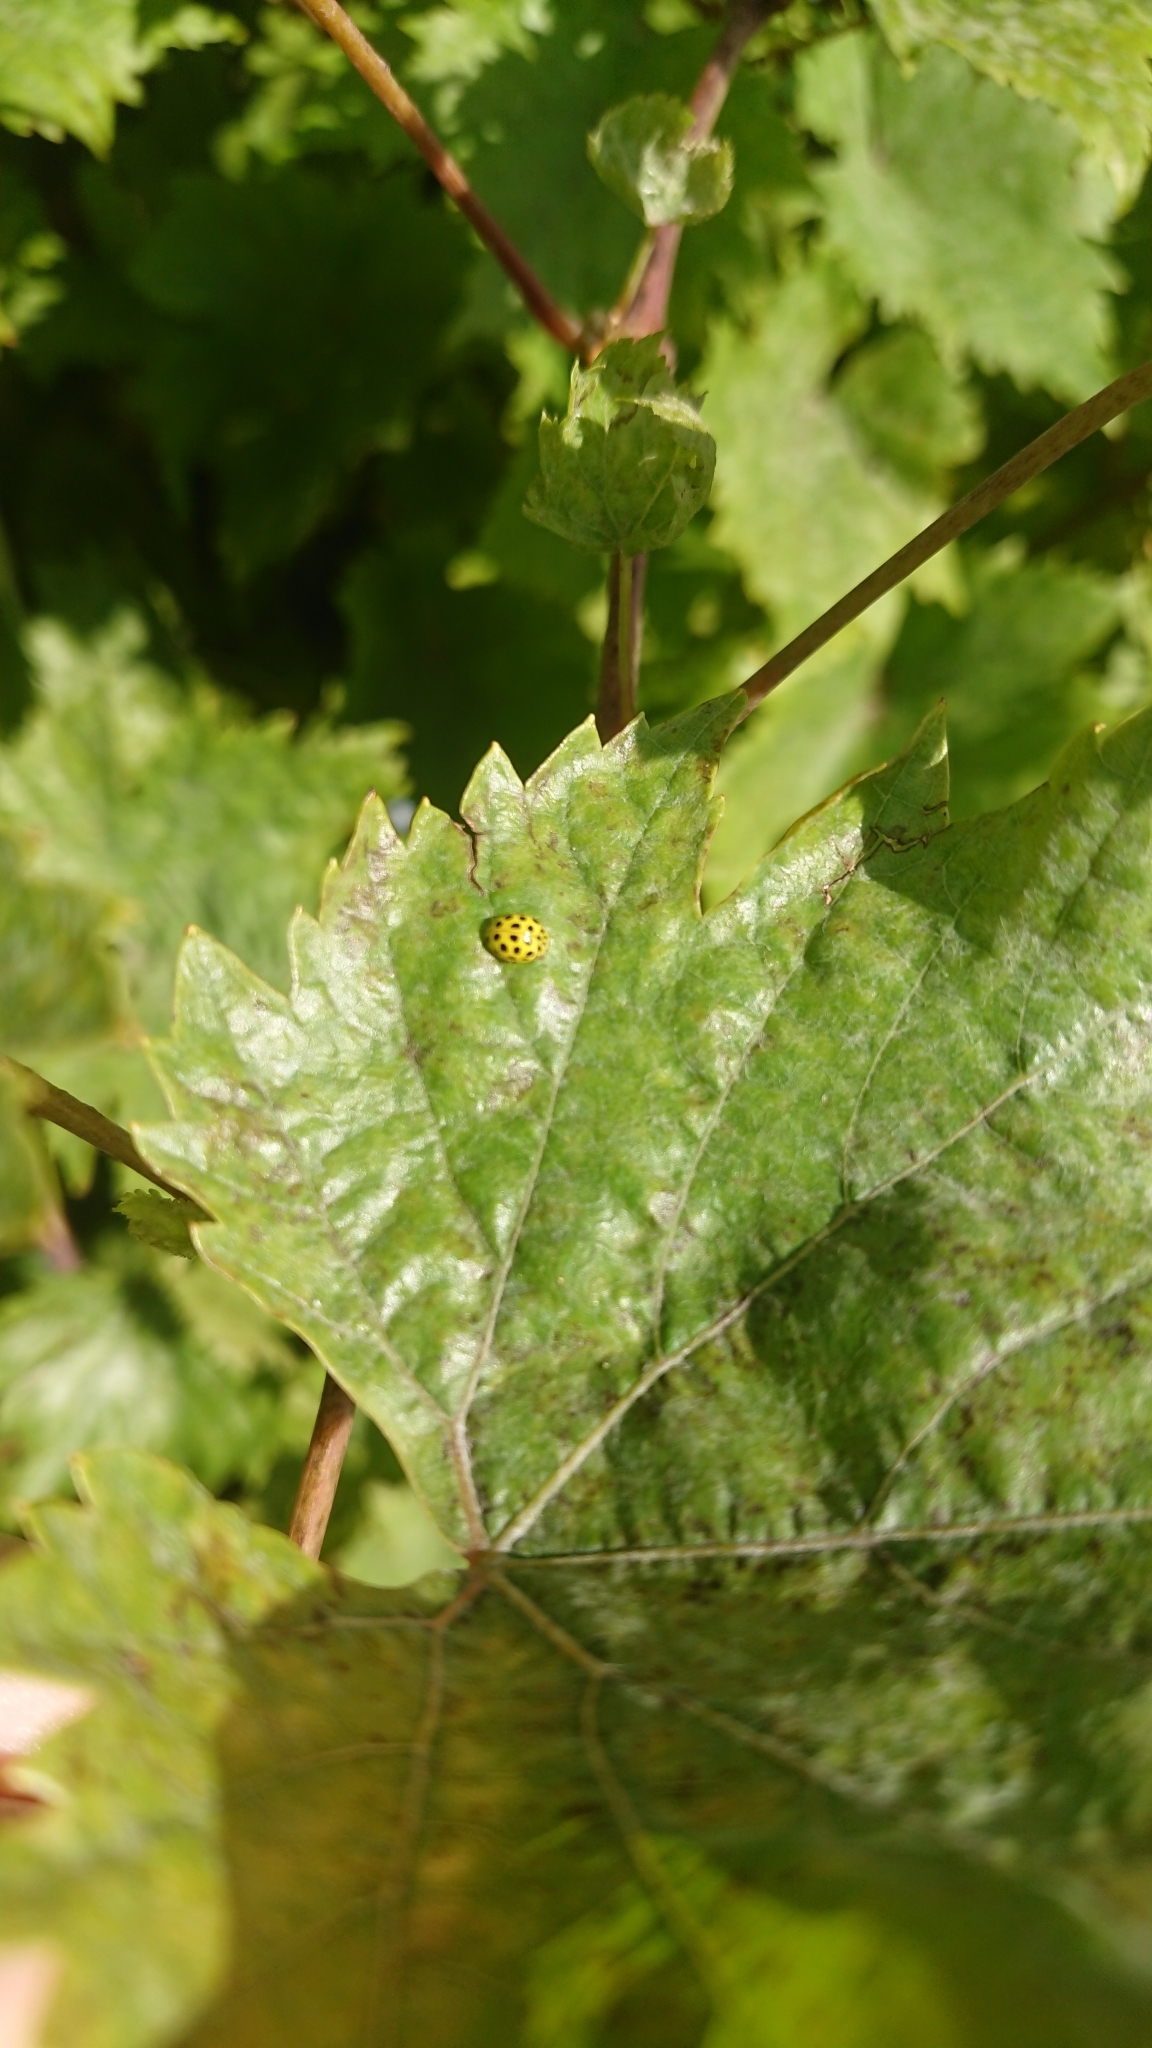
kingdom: Animalia
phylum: Arthropoda
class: Insecta
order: Coleoptera
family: Coccinellidae
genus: Psyllobora
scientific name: Psyllobora vigintiduopunctata
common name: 22-spot ladybird
